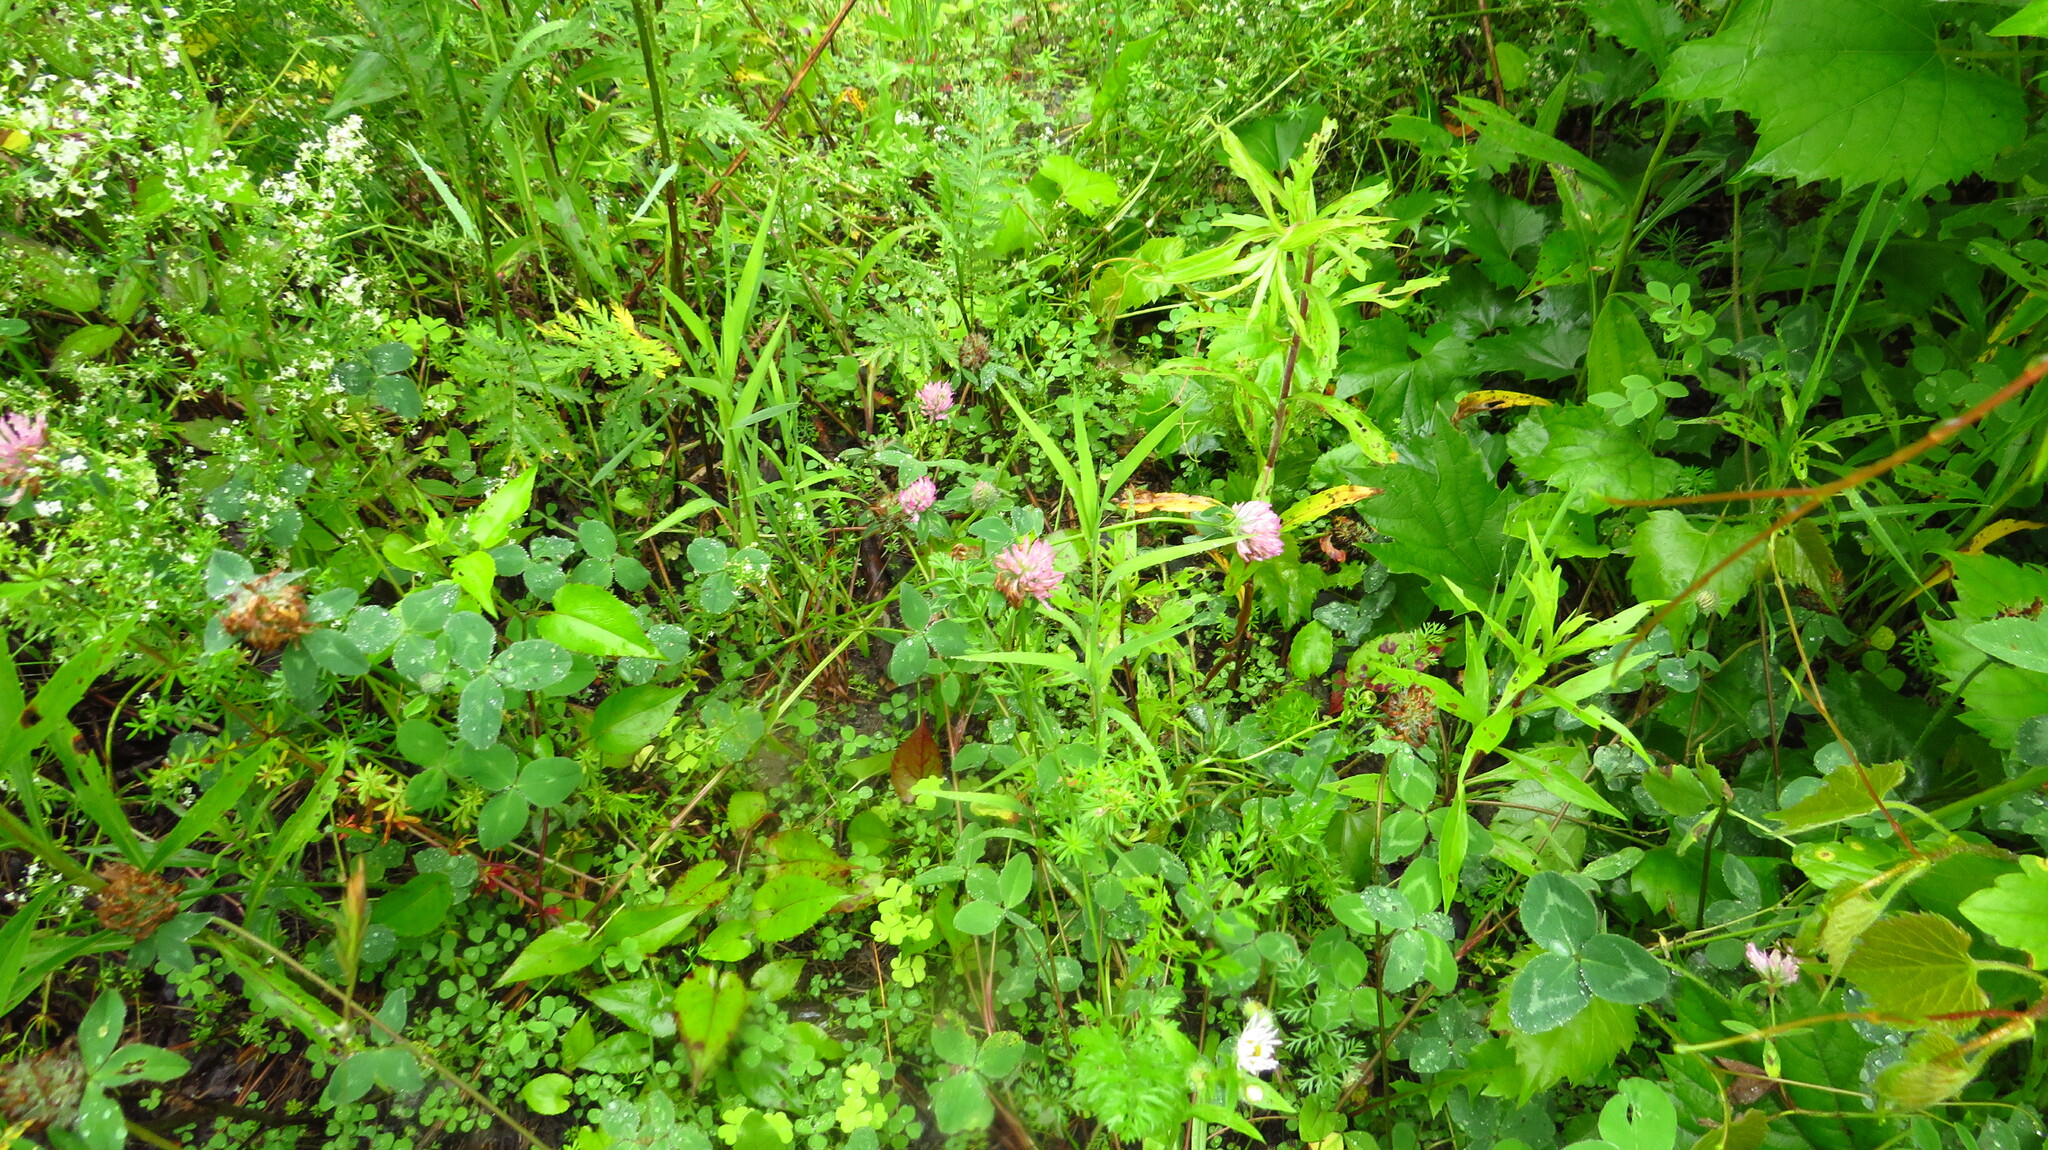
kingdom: Plantae
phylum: Tracheophyta
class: Magnoliopsida
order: Fabales
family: Fabaceae
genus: Trifolium
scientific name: Trifolium pratense
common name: Red clover
